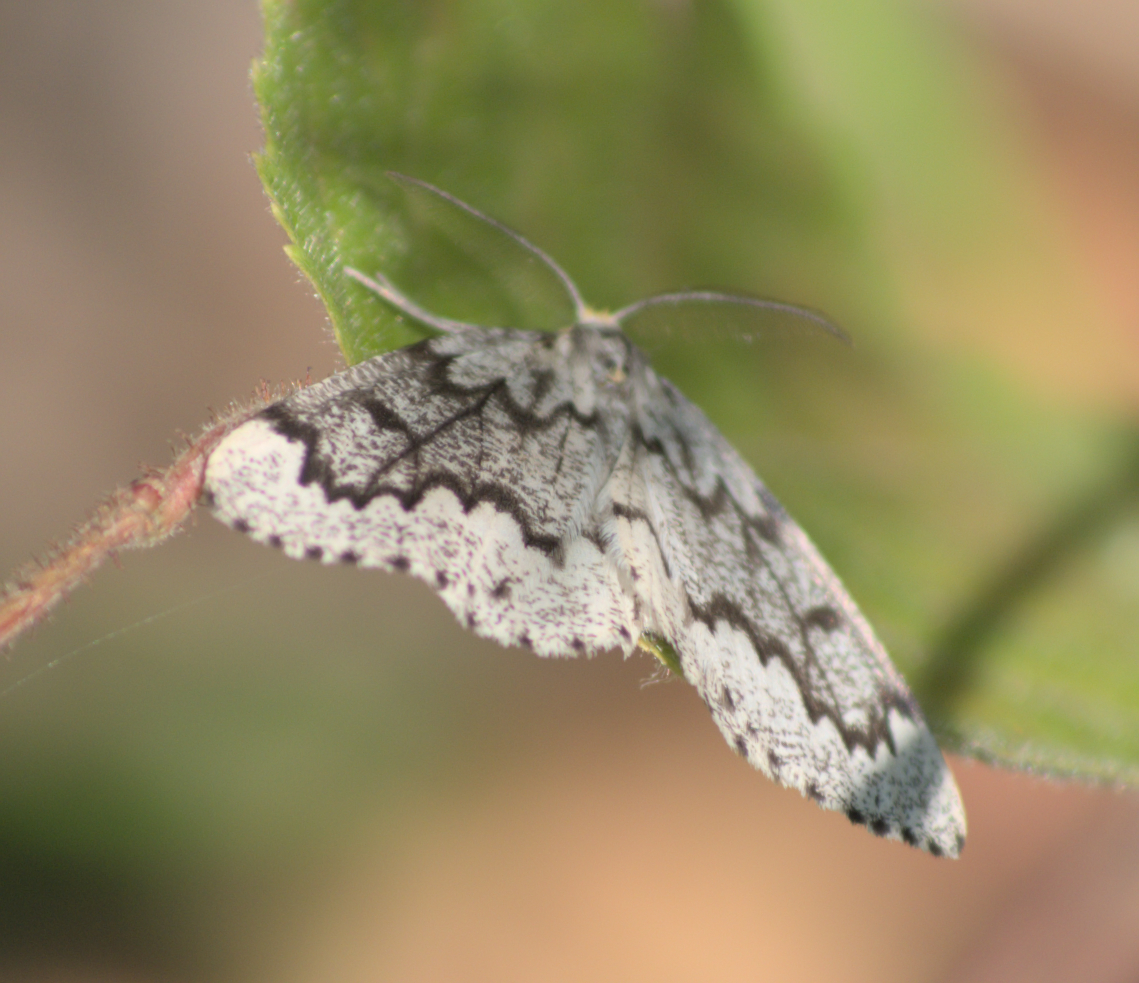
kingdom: Animalia
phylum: Arthropoda
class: Insecta
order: Lepidoptera
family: Geometridae
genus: Nepytia
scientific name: Nepytia canosaria
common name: False hemlock looper
